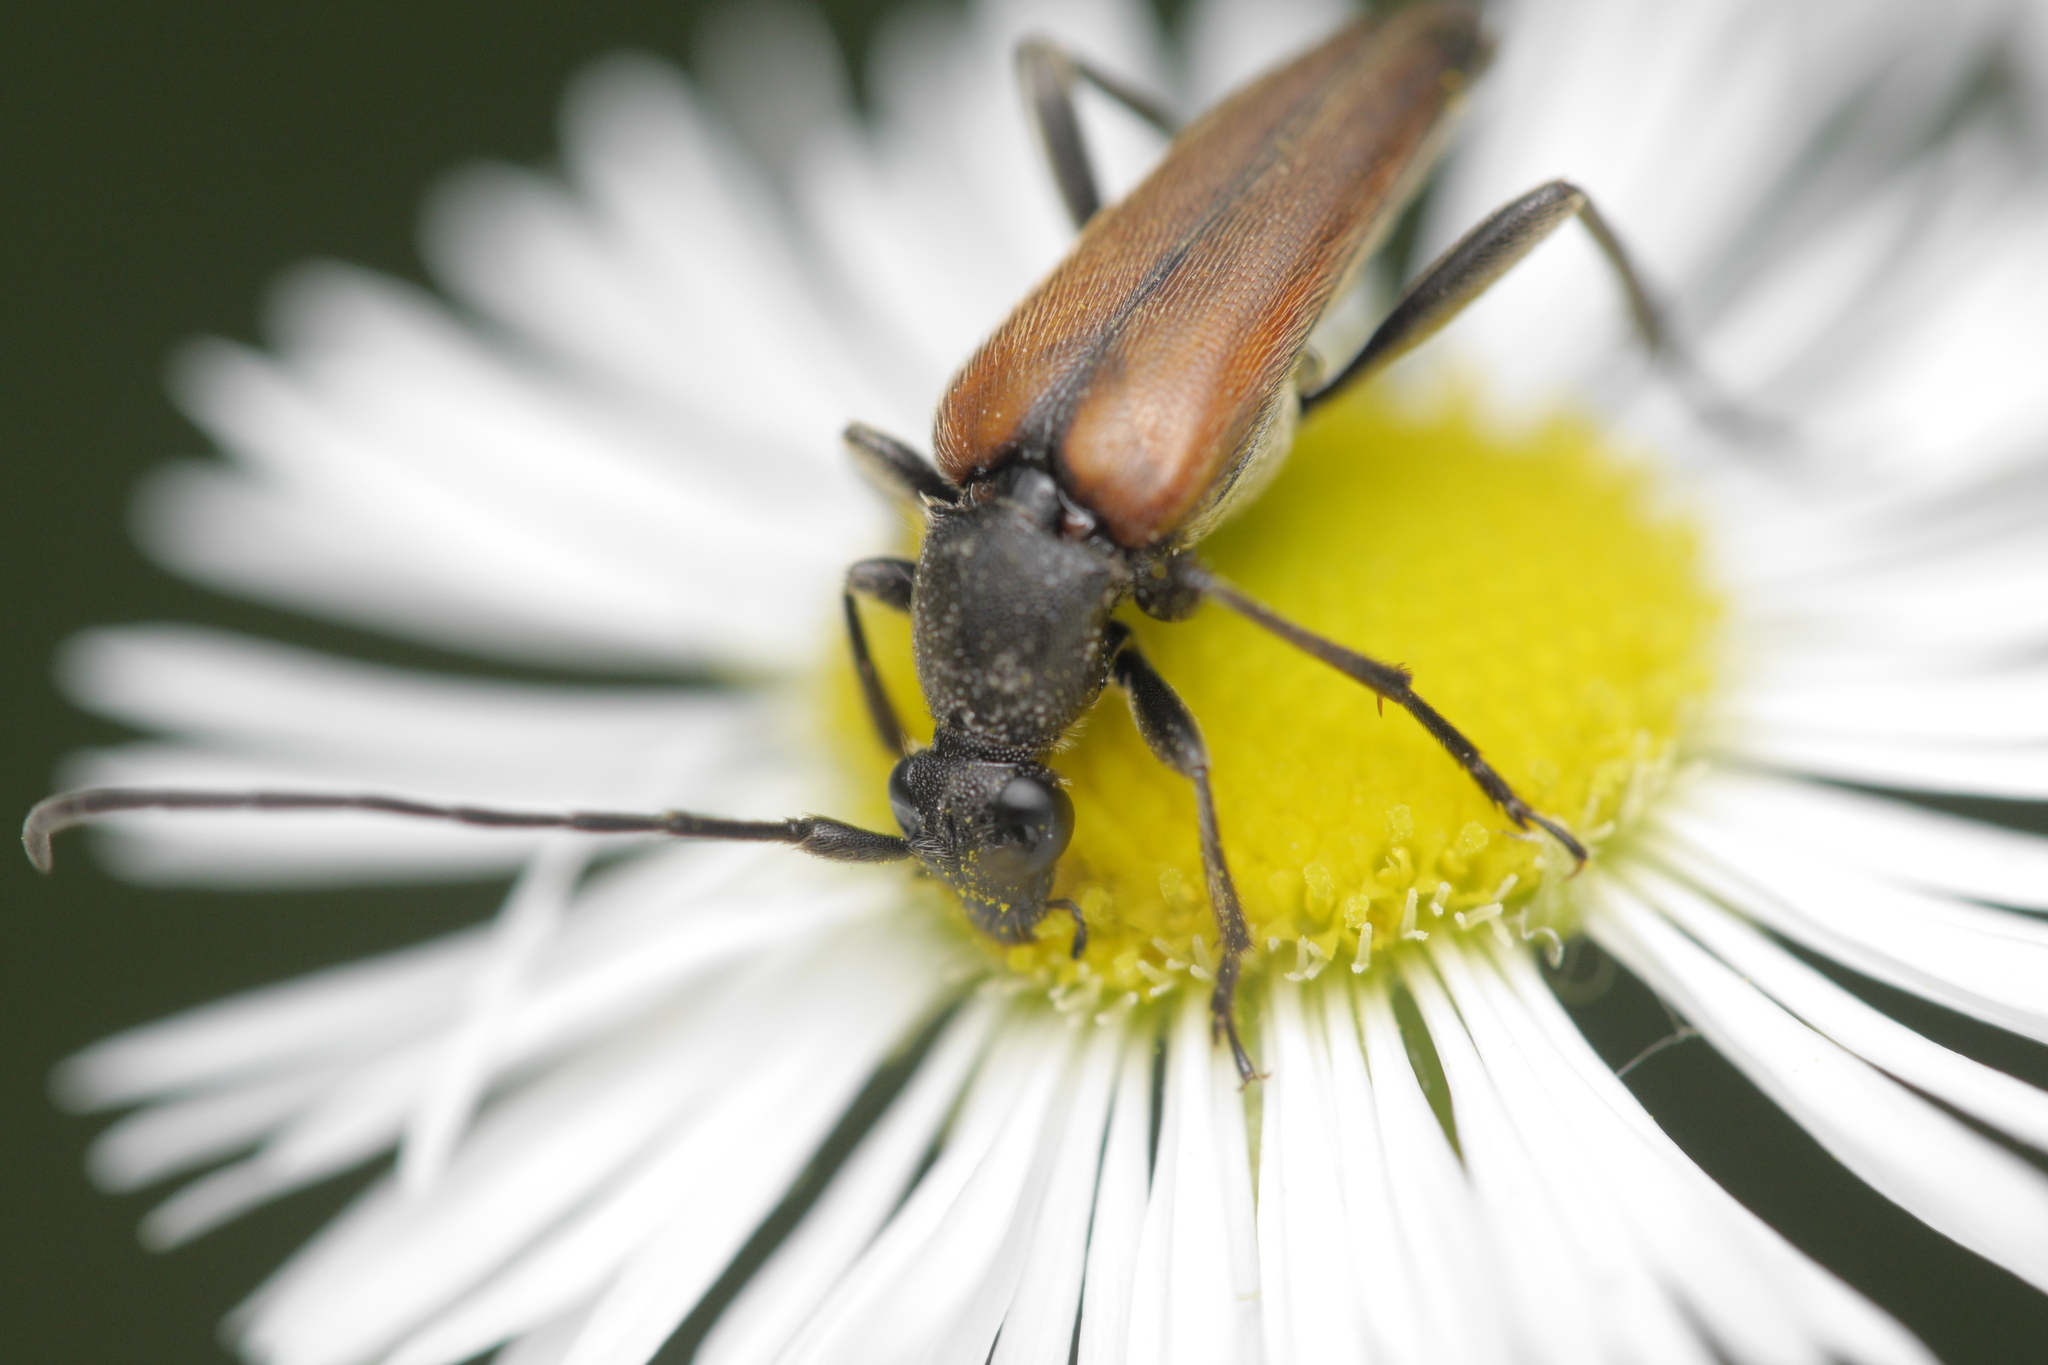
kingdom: Animalia
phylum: Arthropoda
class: Insecta
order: Coleoptera
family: Cerambycidae
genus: Stenurella
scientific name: Stenurella melanura
